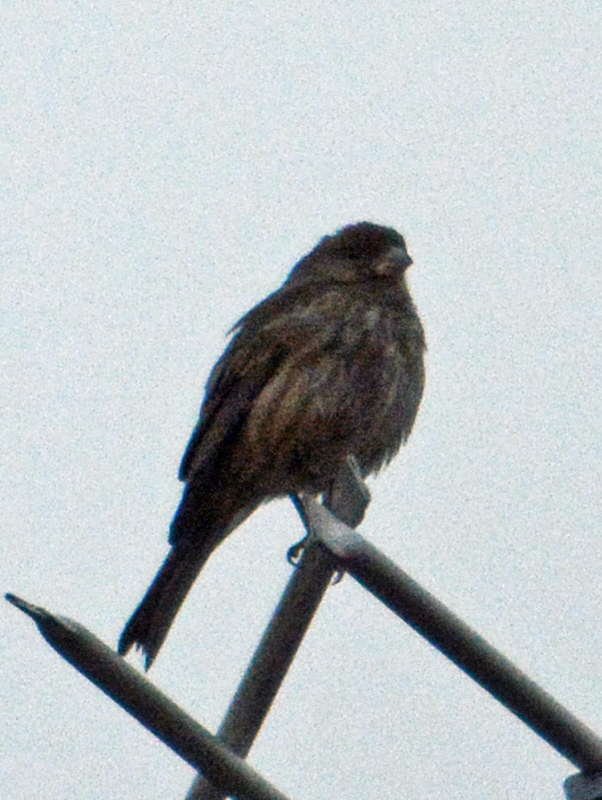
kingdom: Animalia
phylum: Chordata
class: Aves
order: Passeriformes
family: Fringillidae
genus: Haemorhous
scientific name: Haemorhous mexicanus
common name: House finch
